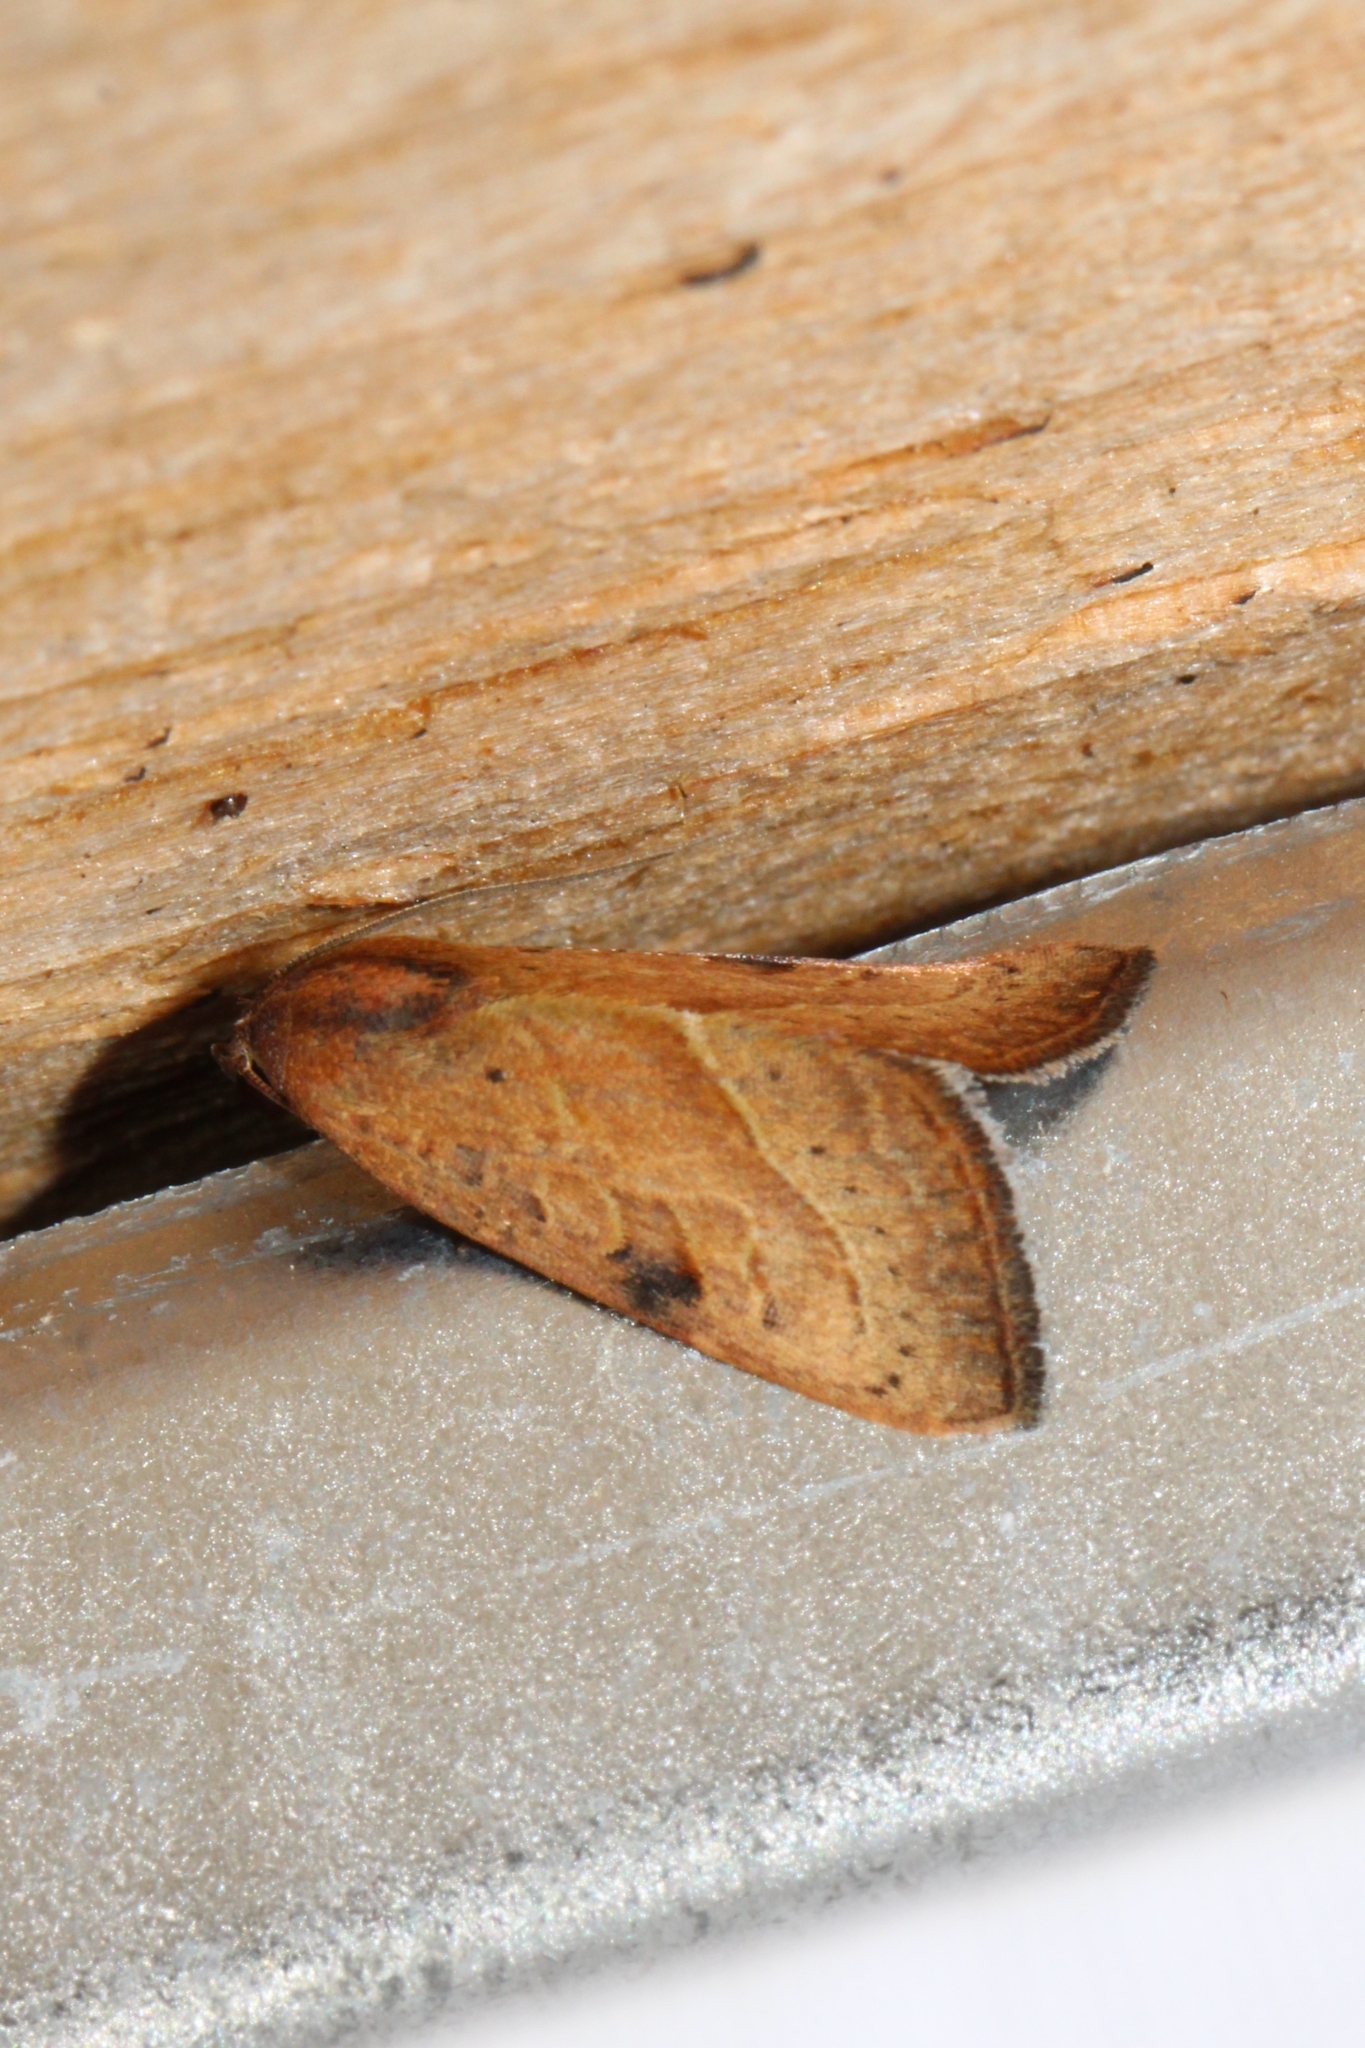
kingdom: Animalia
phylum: Arthropoda
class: Insecta
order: Lepidoptera
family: Noctuidae
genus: Galgula
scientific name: Galgula partita
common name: Wedgeling
